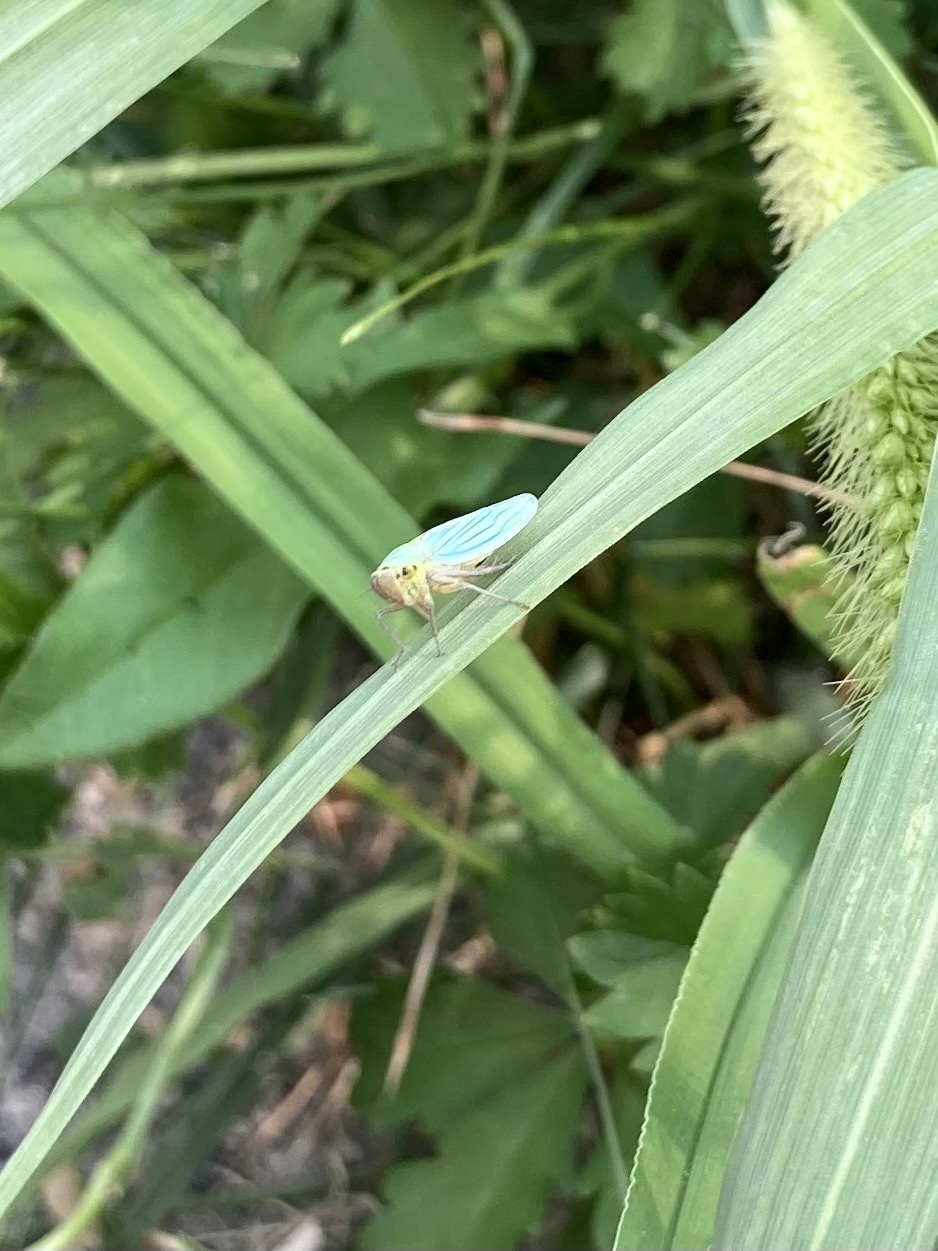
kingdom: Animalia
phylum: Arthropoda
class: Insecta
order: Hemiptera
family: Cicadellidae
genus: Cicadella
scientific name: Cicadella viridis
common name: Leafhopper
